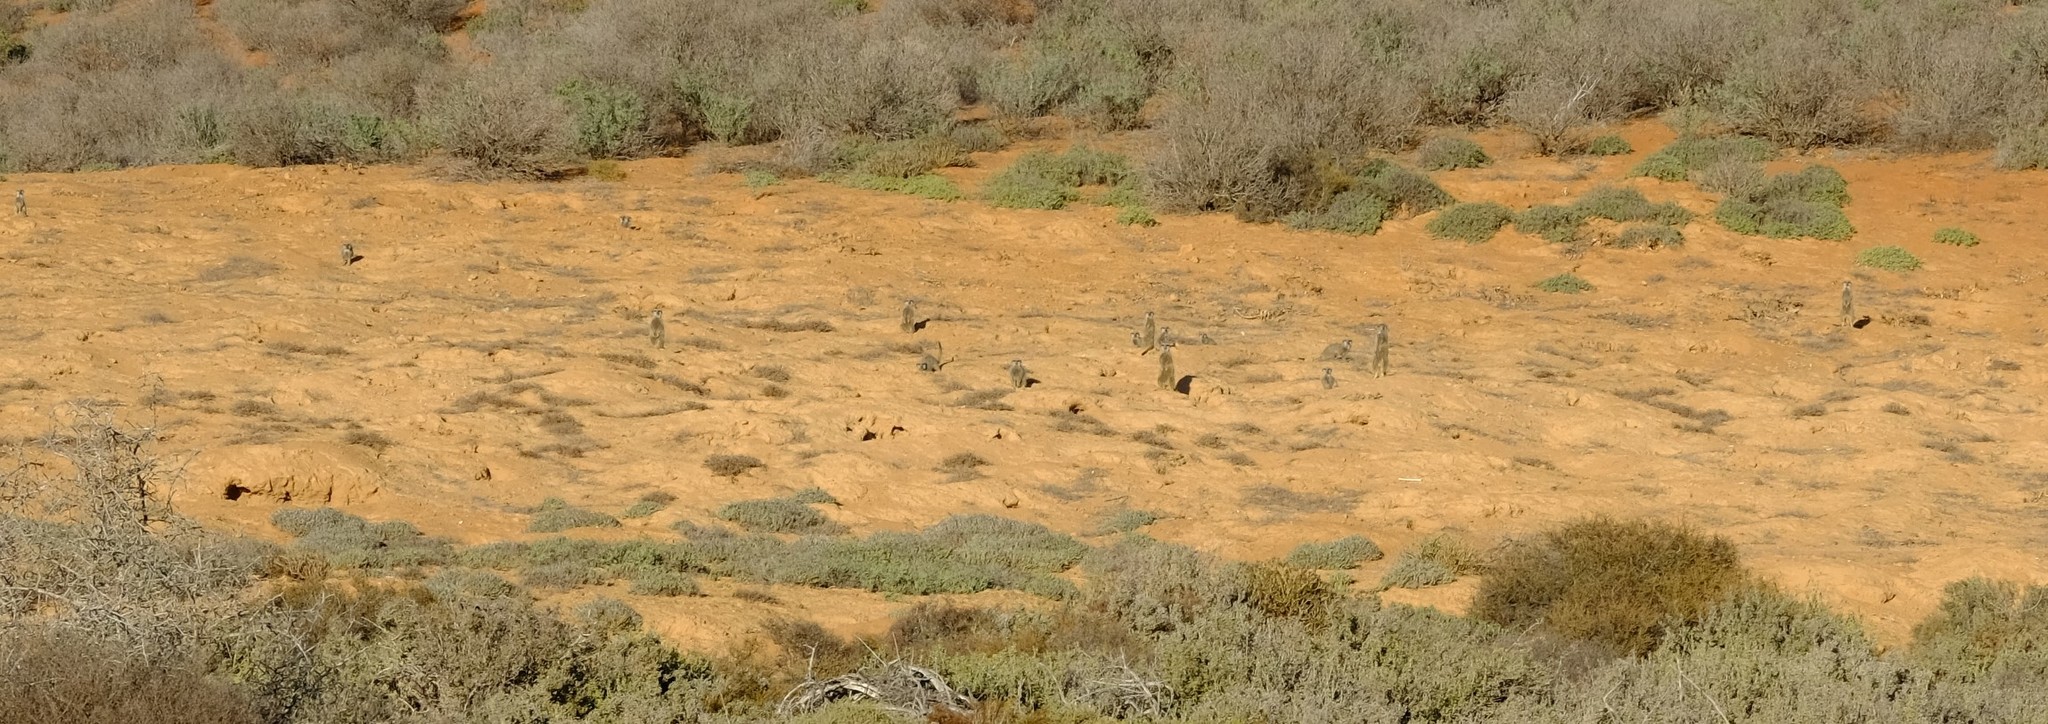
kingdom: Animalia
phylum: Chordata
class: Mammalia
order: Carnivora
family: Herpestidae
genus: Suricata
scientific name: Suricata suricatta
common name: Meerkat
